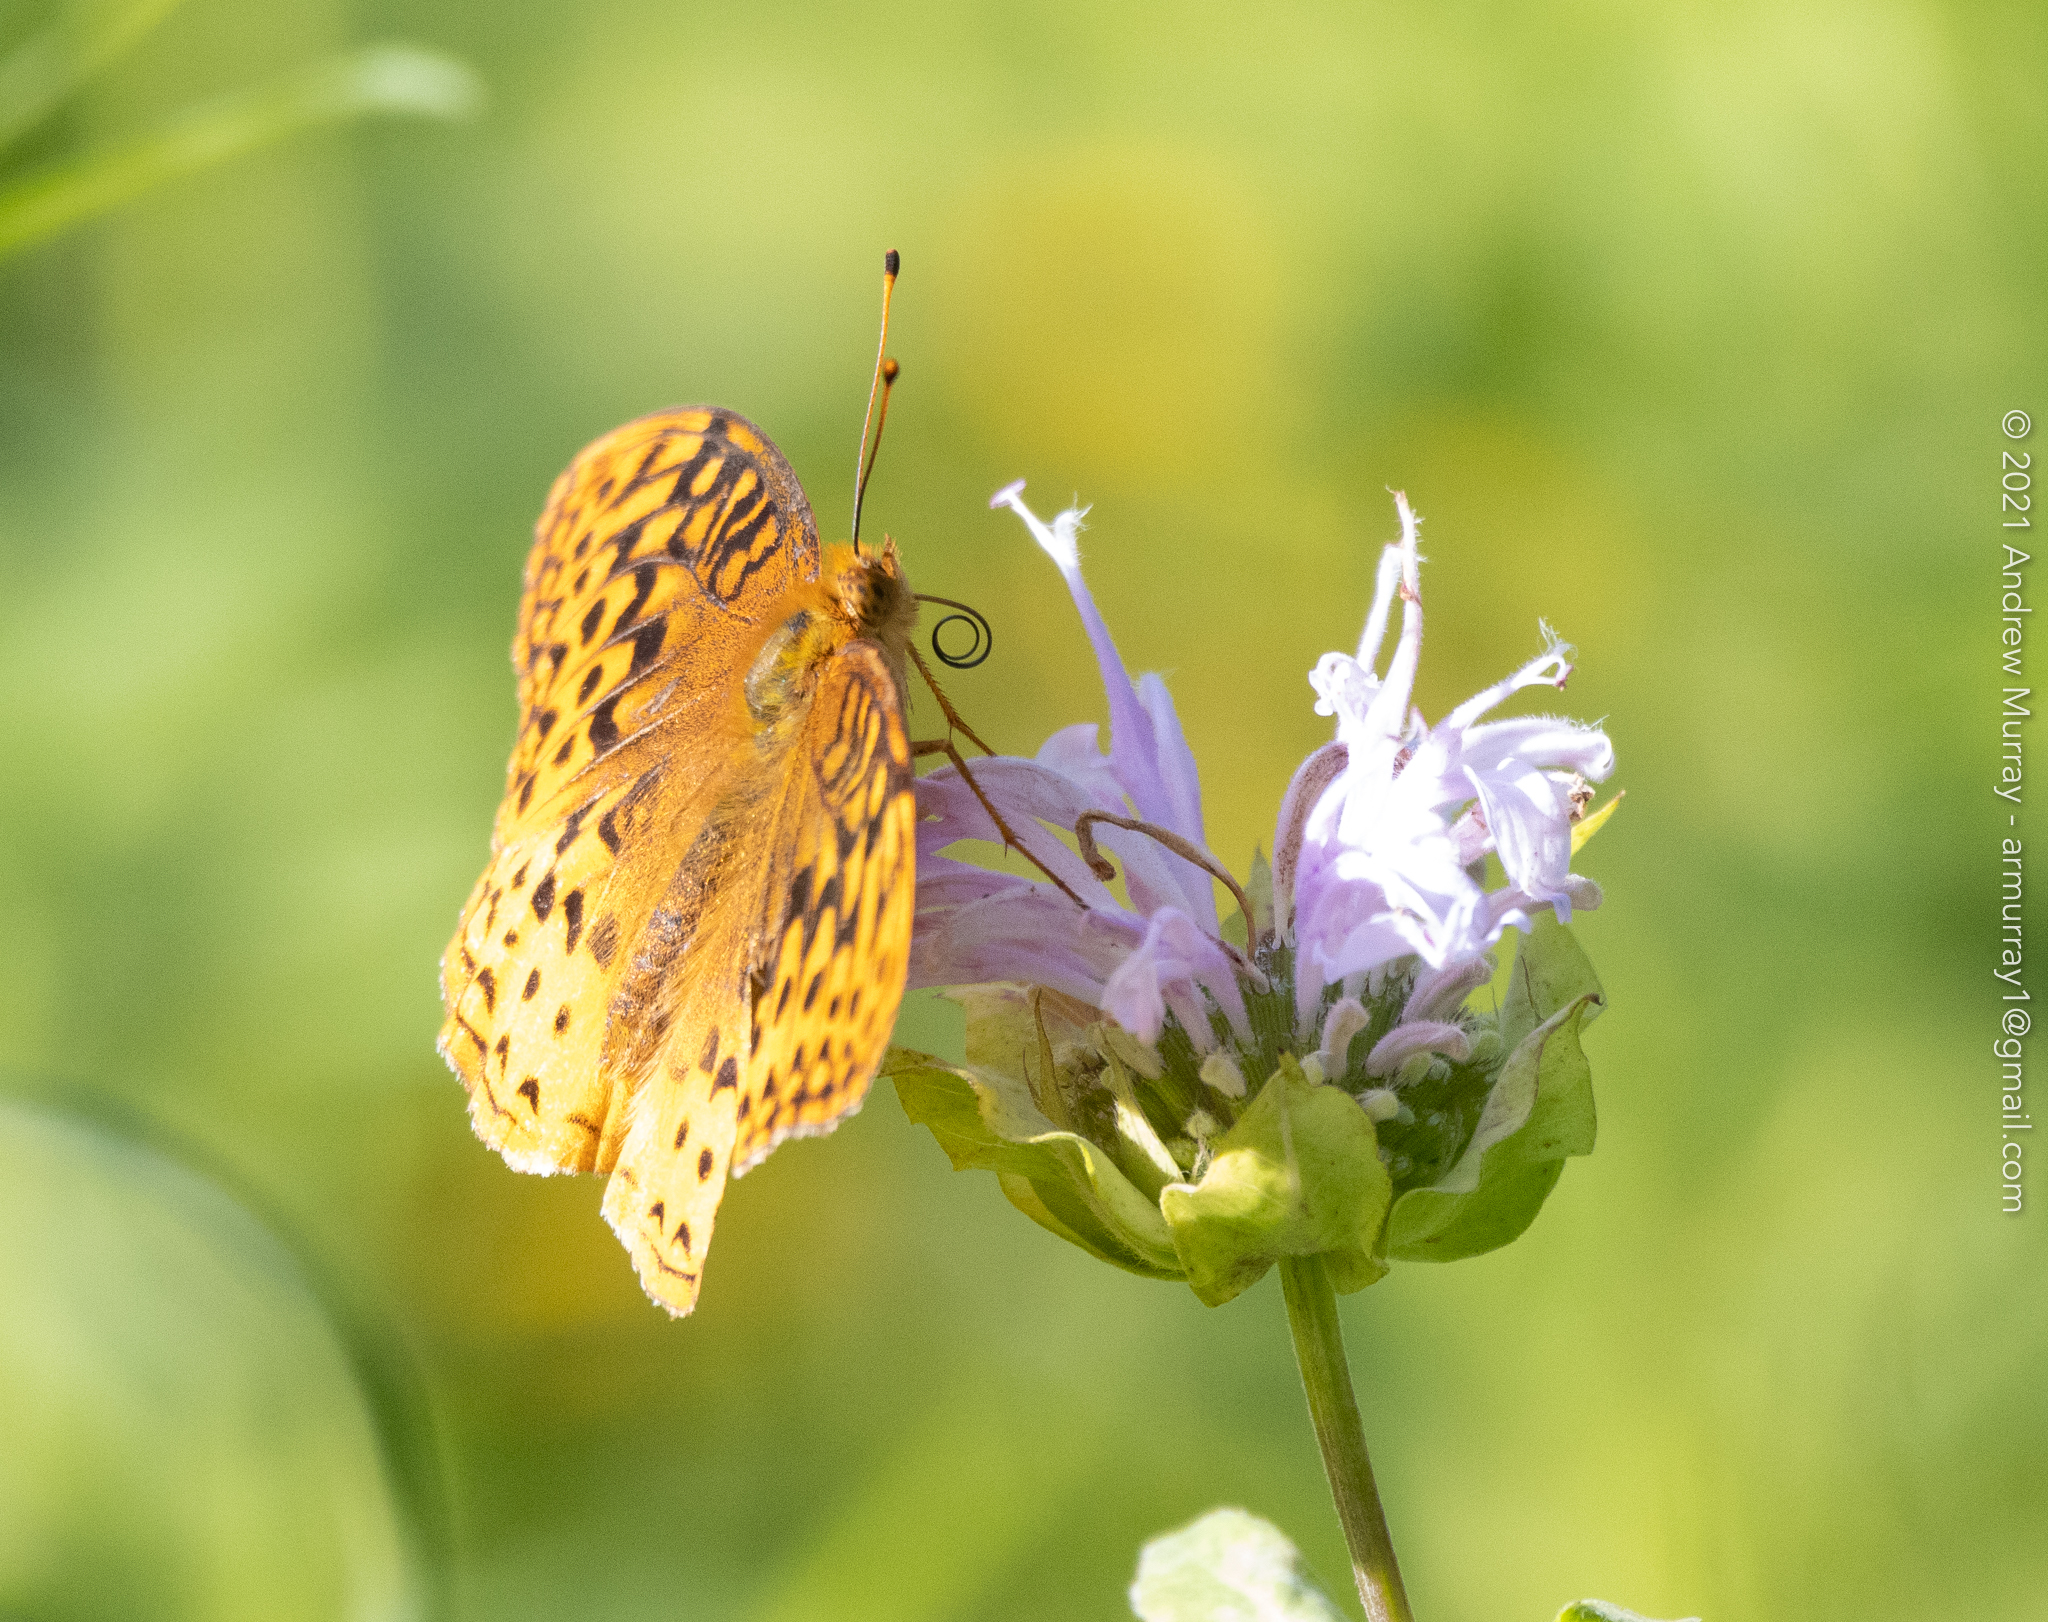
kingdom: Animalia
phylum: Arthropoda
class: Insecta
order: Lepidoptera
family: Nymphalidae
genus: Speyeria
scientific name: Speyeria cybele
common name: Great spangled fritillary
